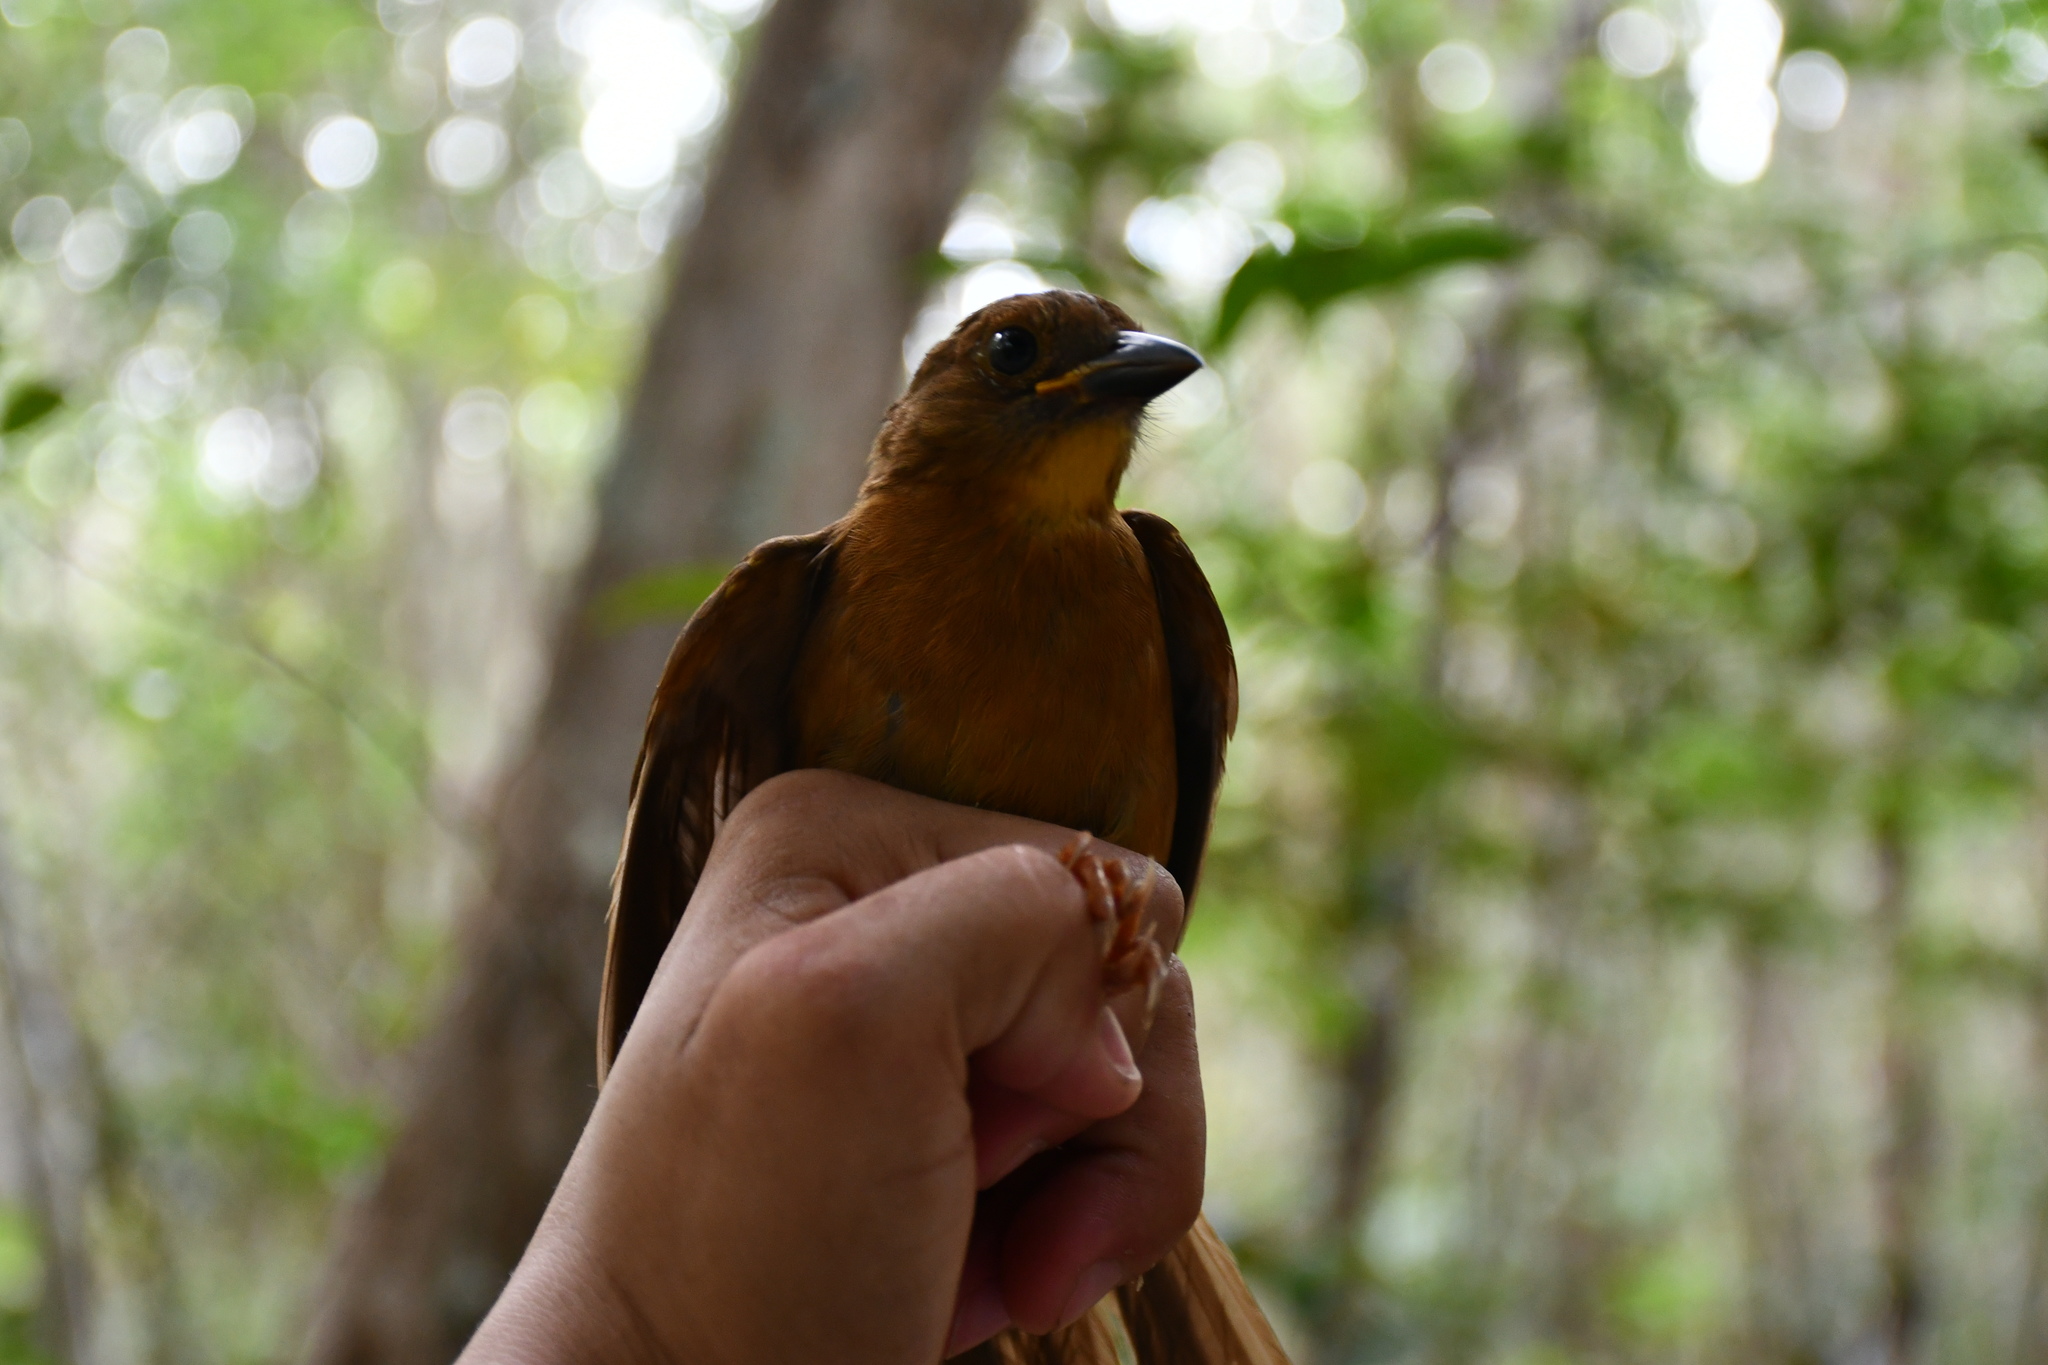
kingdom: Animalia
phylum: Chordata
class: Aves
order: Passeriformes
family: Cardinalidae
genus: Habia
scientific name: Habia fuscicauda
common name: Red-throated ant-tanager
